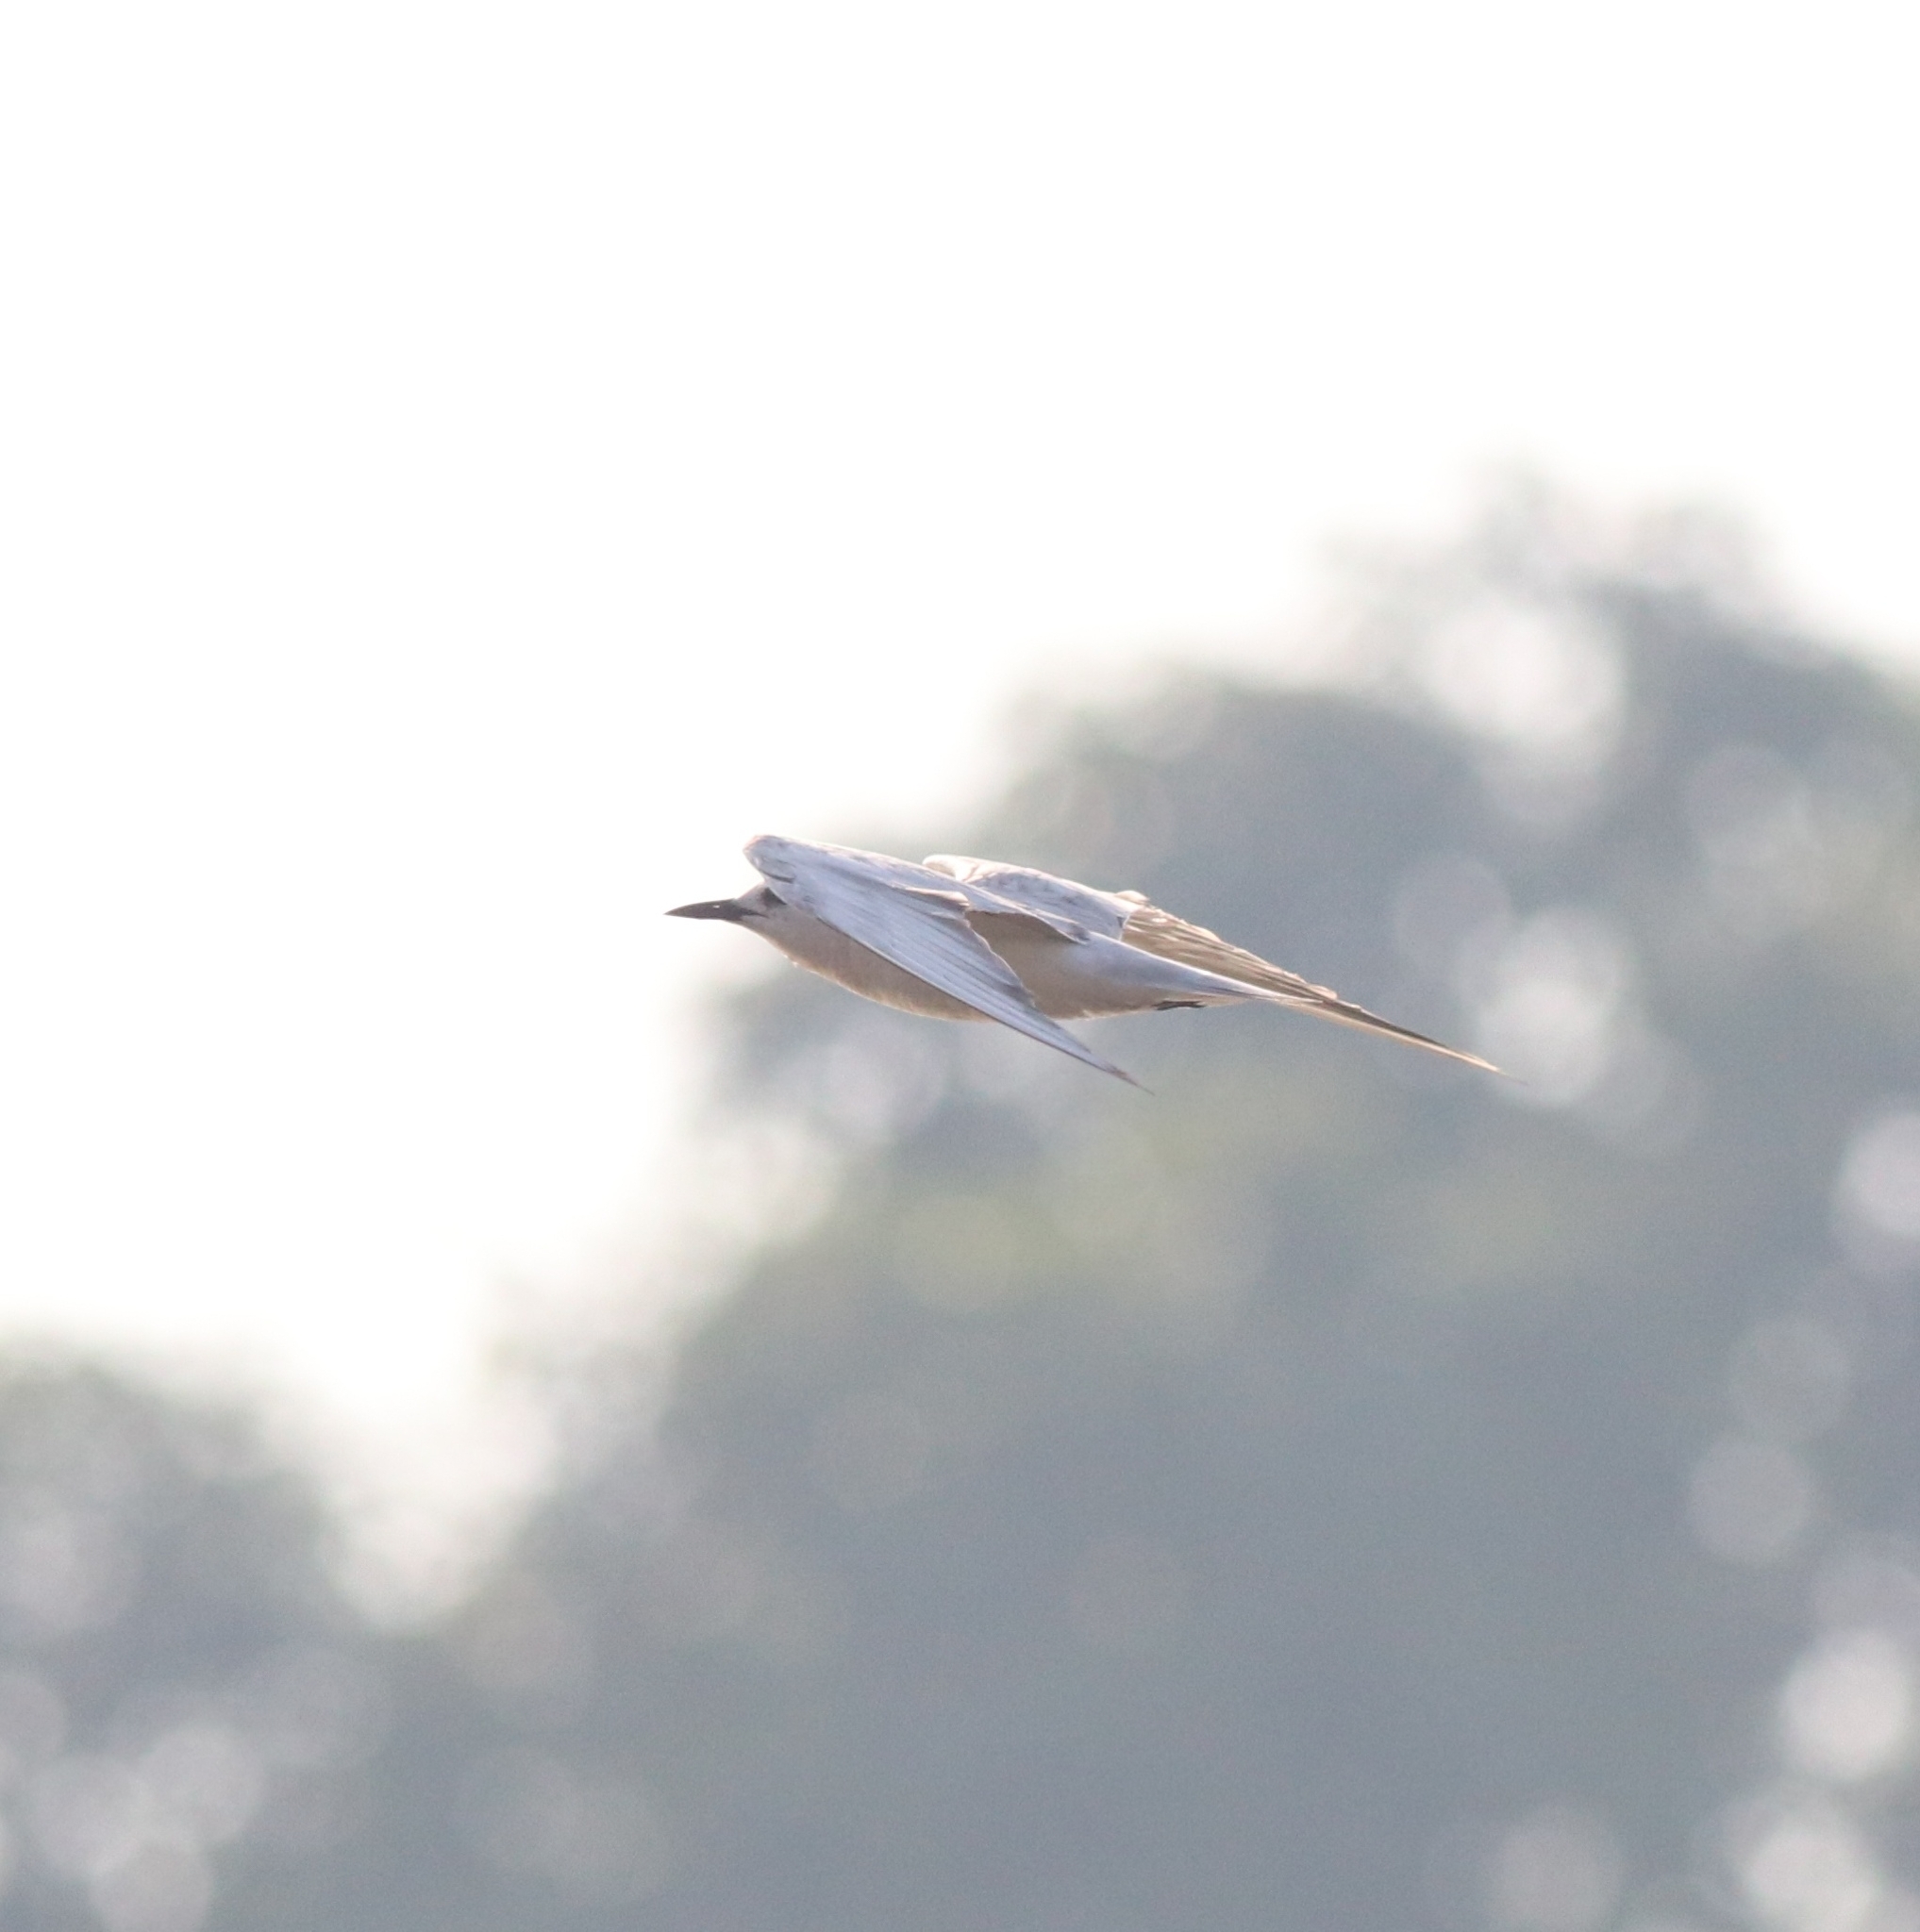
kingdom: Animalia
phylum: Chordata
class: Aves
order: Charadriiformes
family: Laridae
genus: Chlidonias
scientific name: Chlidonias hybrida
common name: Whiskered tern
